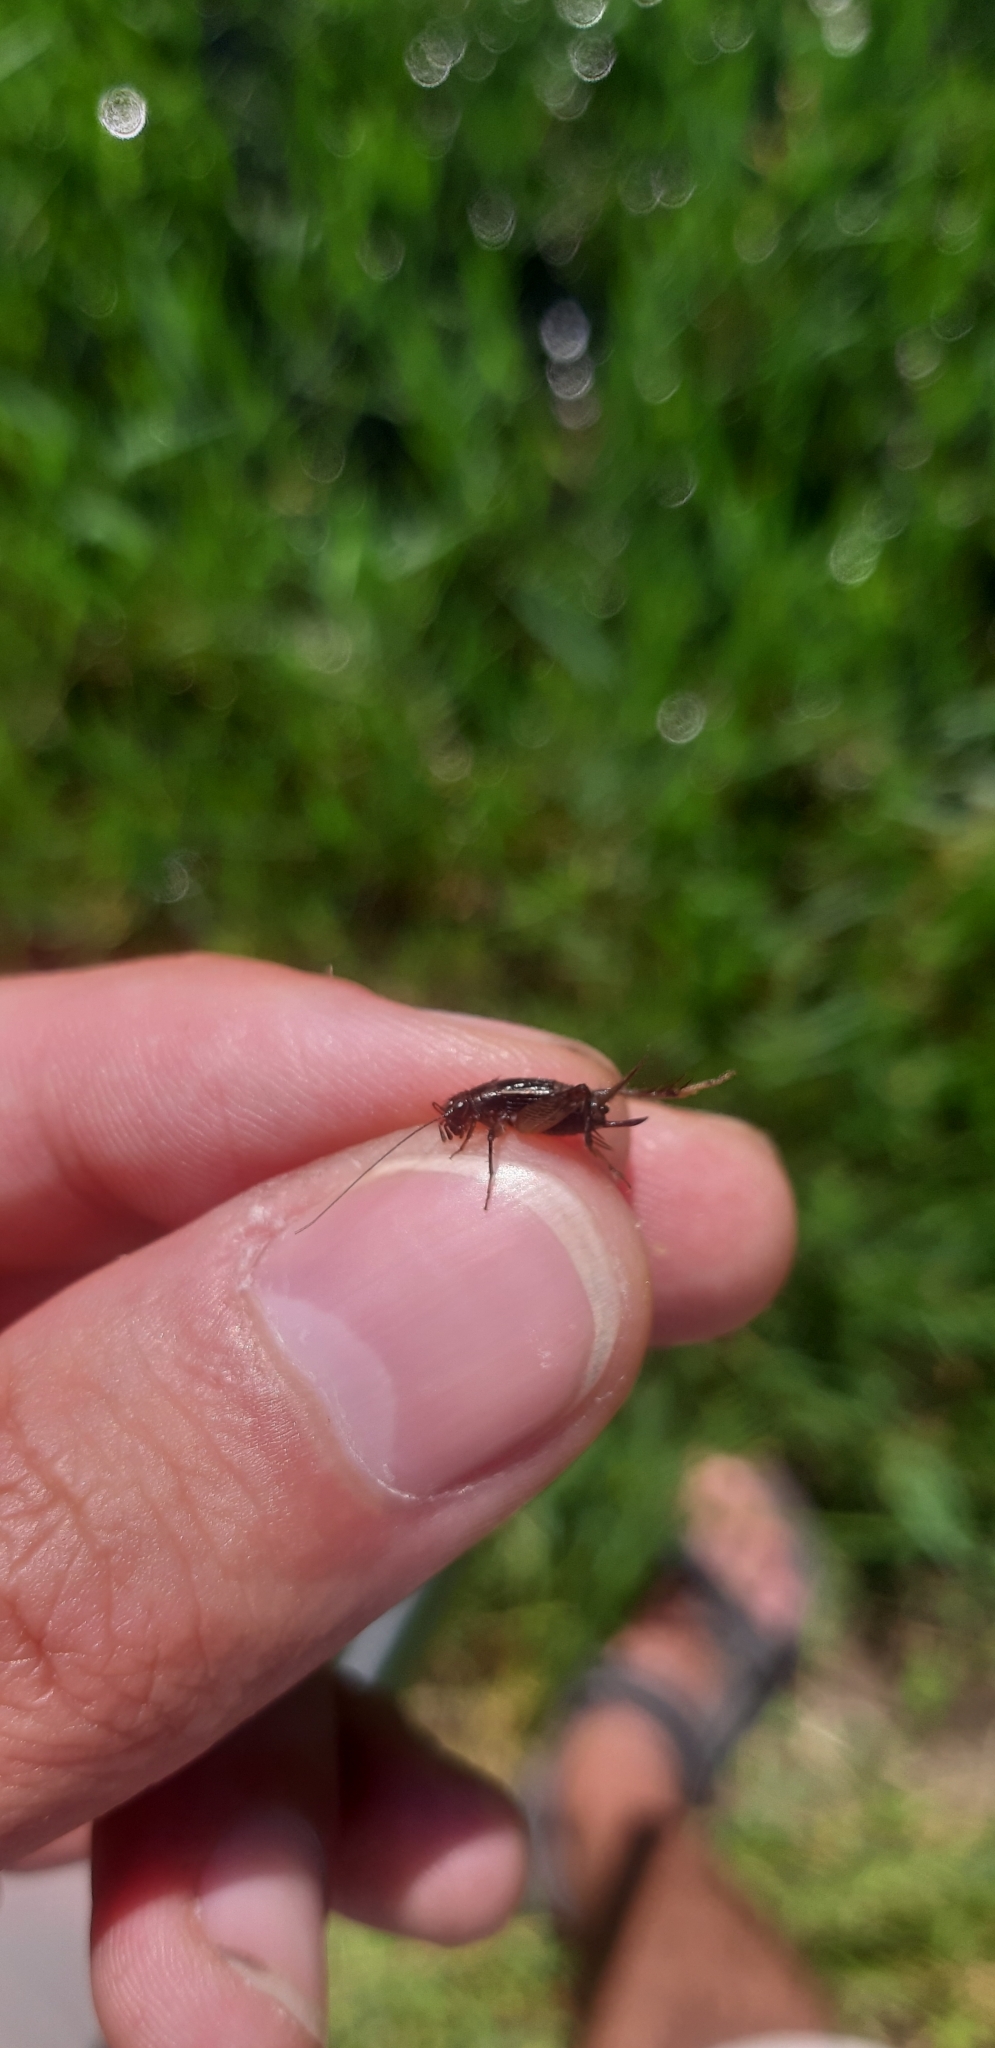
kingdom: Animalia
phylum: Arthropoda
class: Insecta
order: Orthoptera
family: Trigonidiidae
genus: Pteronemobius
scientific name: Pteronemobius heydenii
